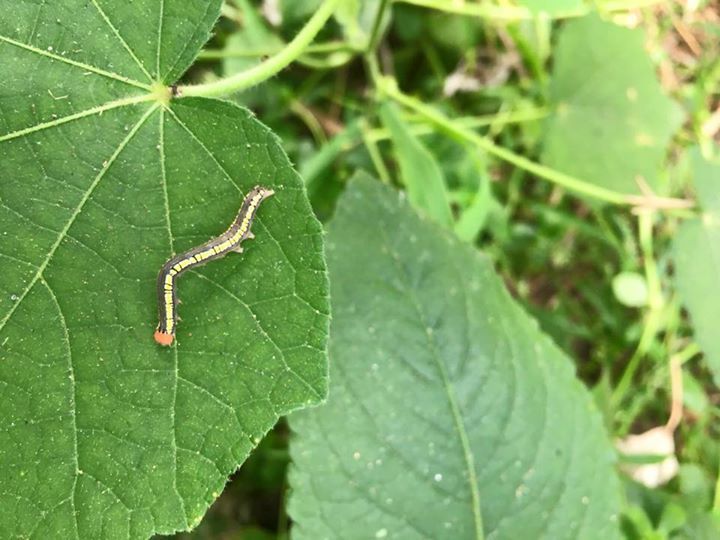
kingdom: Animalia
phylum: Arthropoda
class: Insecta
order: Lepidoptera
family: Erebidae
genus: Anomis
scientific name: Anomis fulvida
